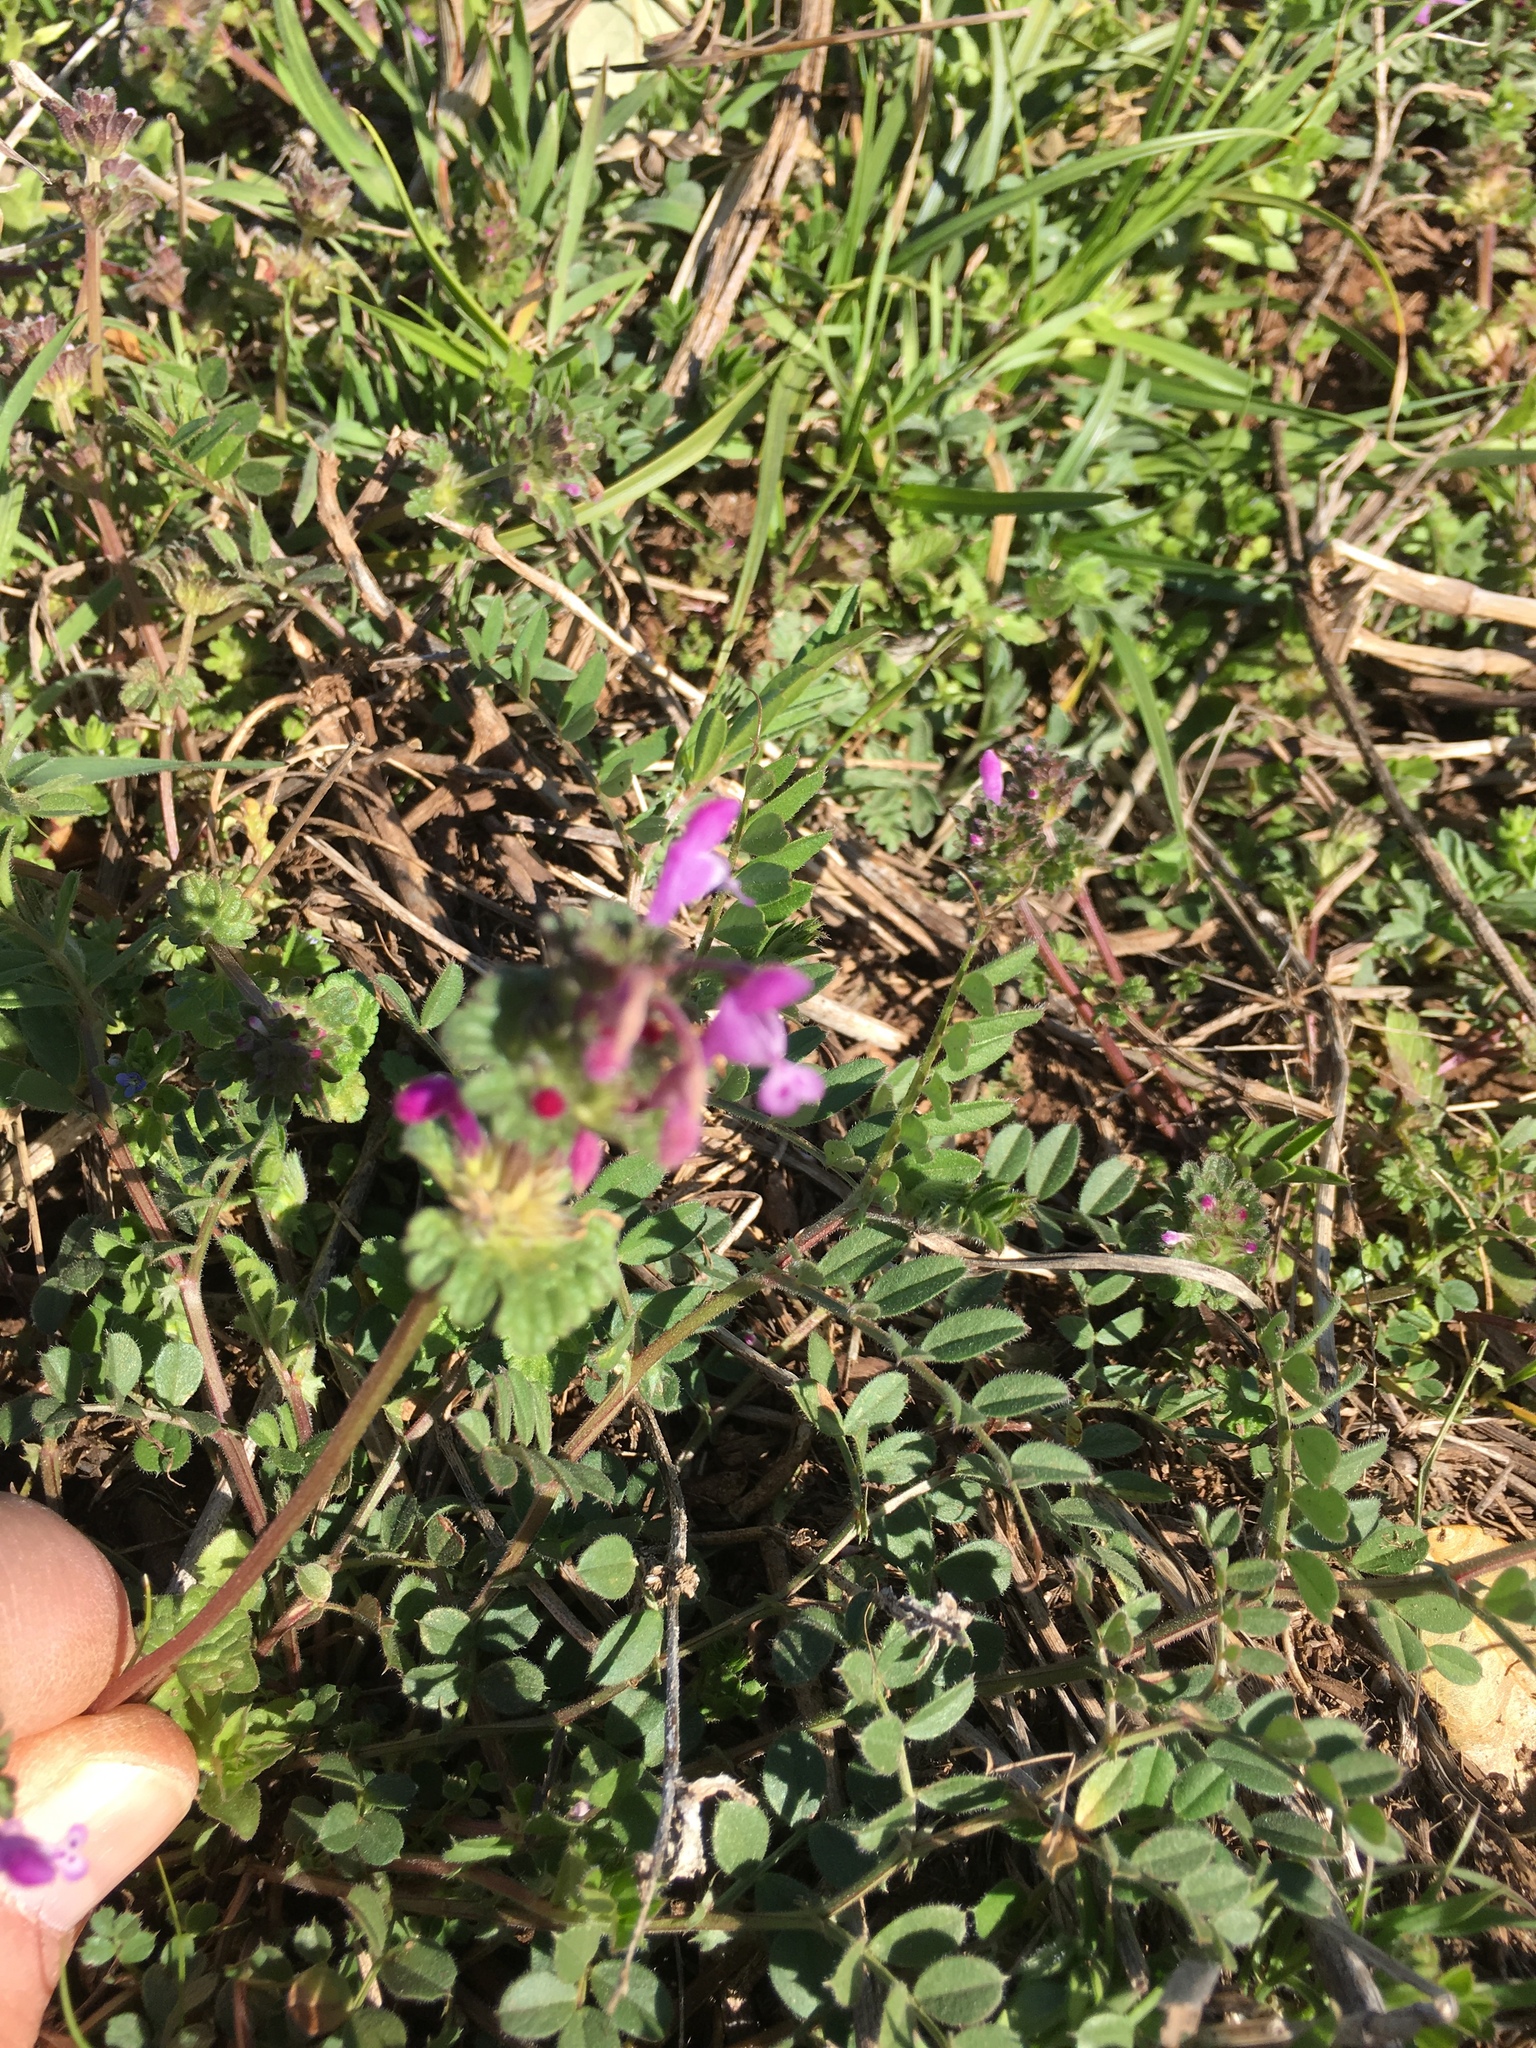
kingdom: Plantae
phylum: Tracheophyta
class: Magnoliopsida
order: Lamiales
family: Lamiaceae
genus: Lamium
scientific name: Lamium amplexicaule
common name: Henbit dead-nettle
